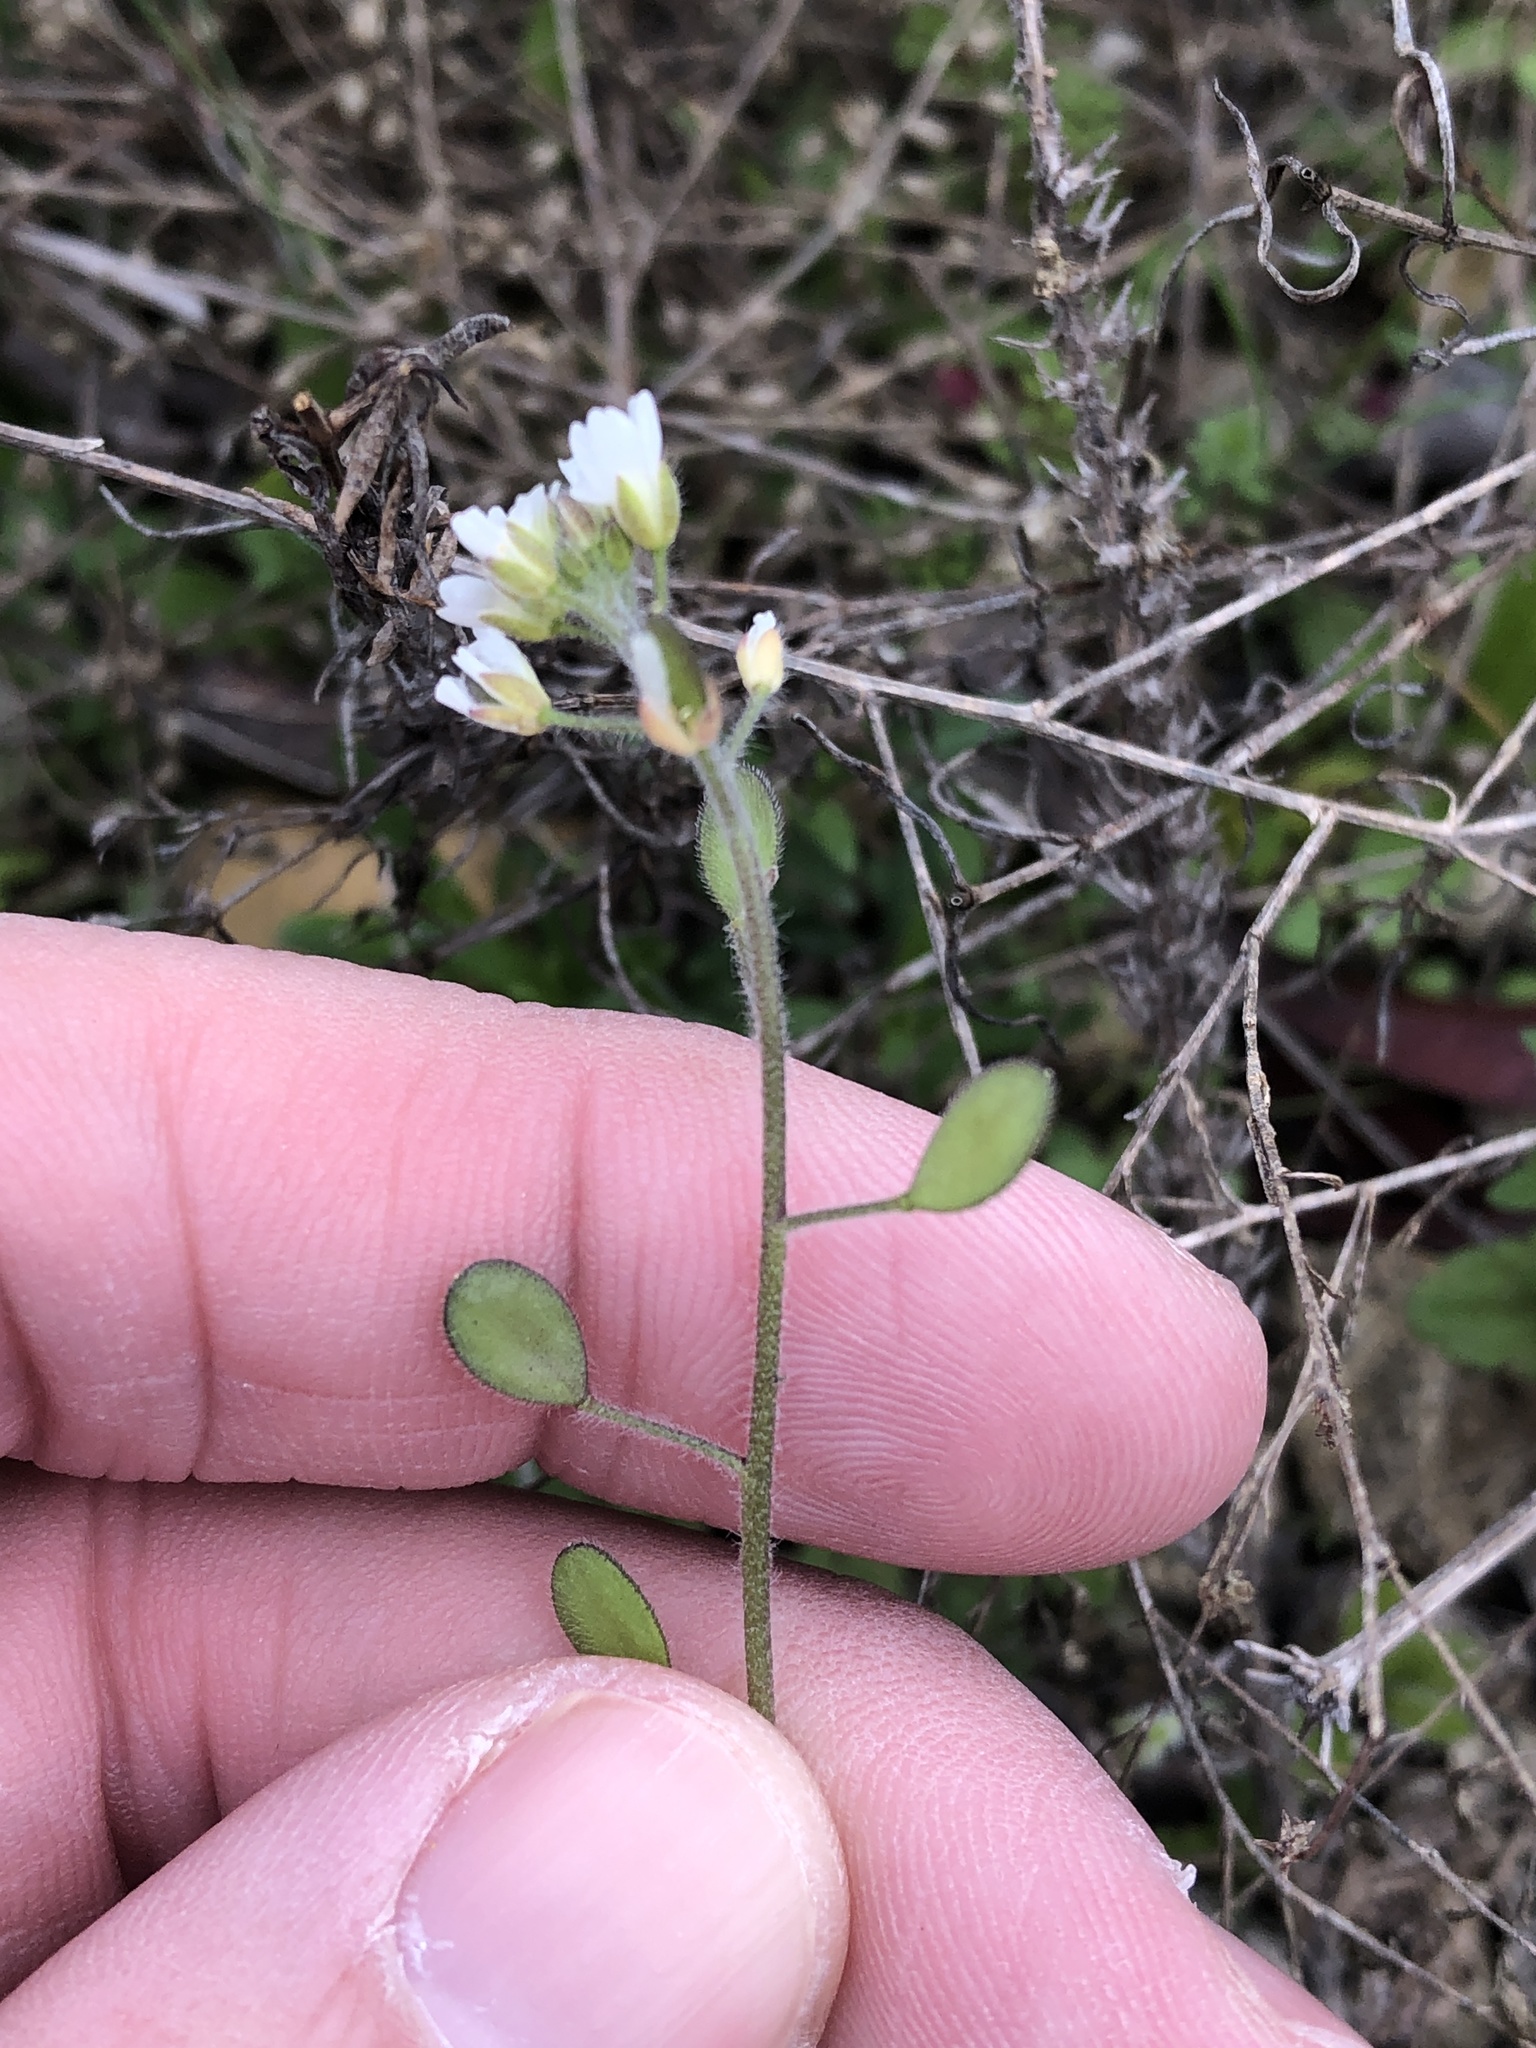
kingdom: Plantae
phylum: Tracheophyta
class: Magnoliopsida
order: Brassicales
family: Brassicaceae
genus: Tomostima
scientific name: Tomostima platycarpa
